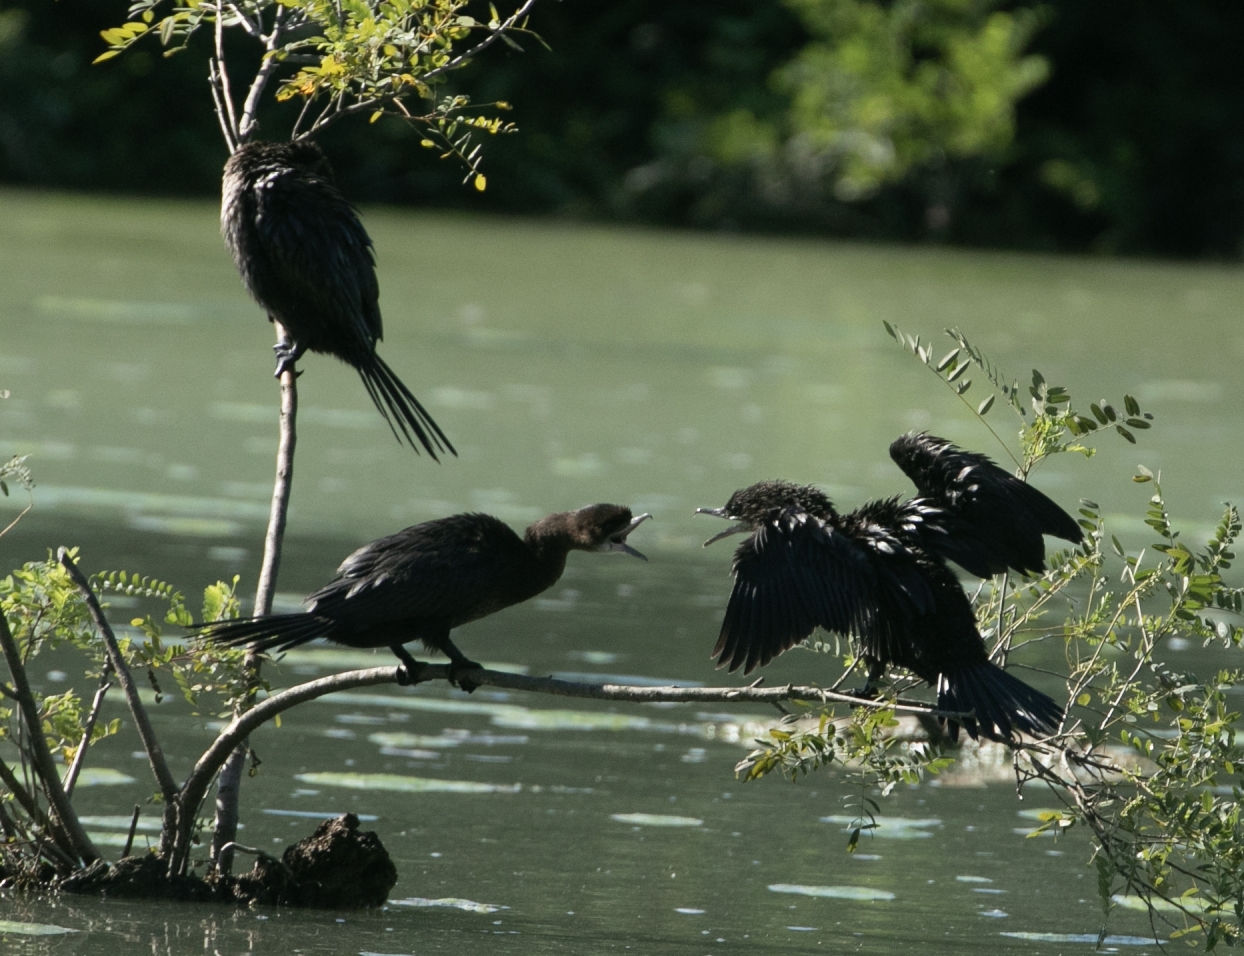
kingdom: Animalia
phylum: Chordata
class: Aves
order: Suliformes
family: Phalacrocoracidae
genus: Microcarbo
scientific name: Microcarbo pygmaeus
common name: Pygmy cormorant
